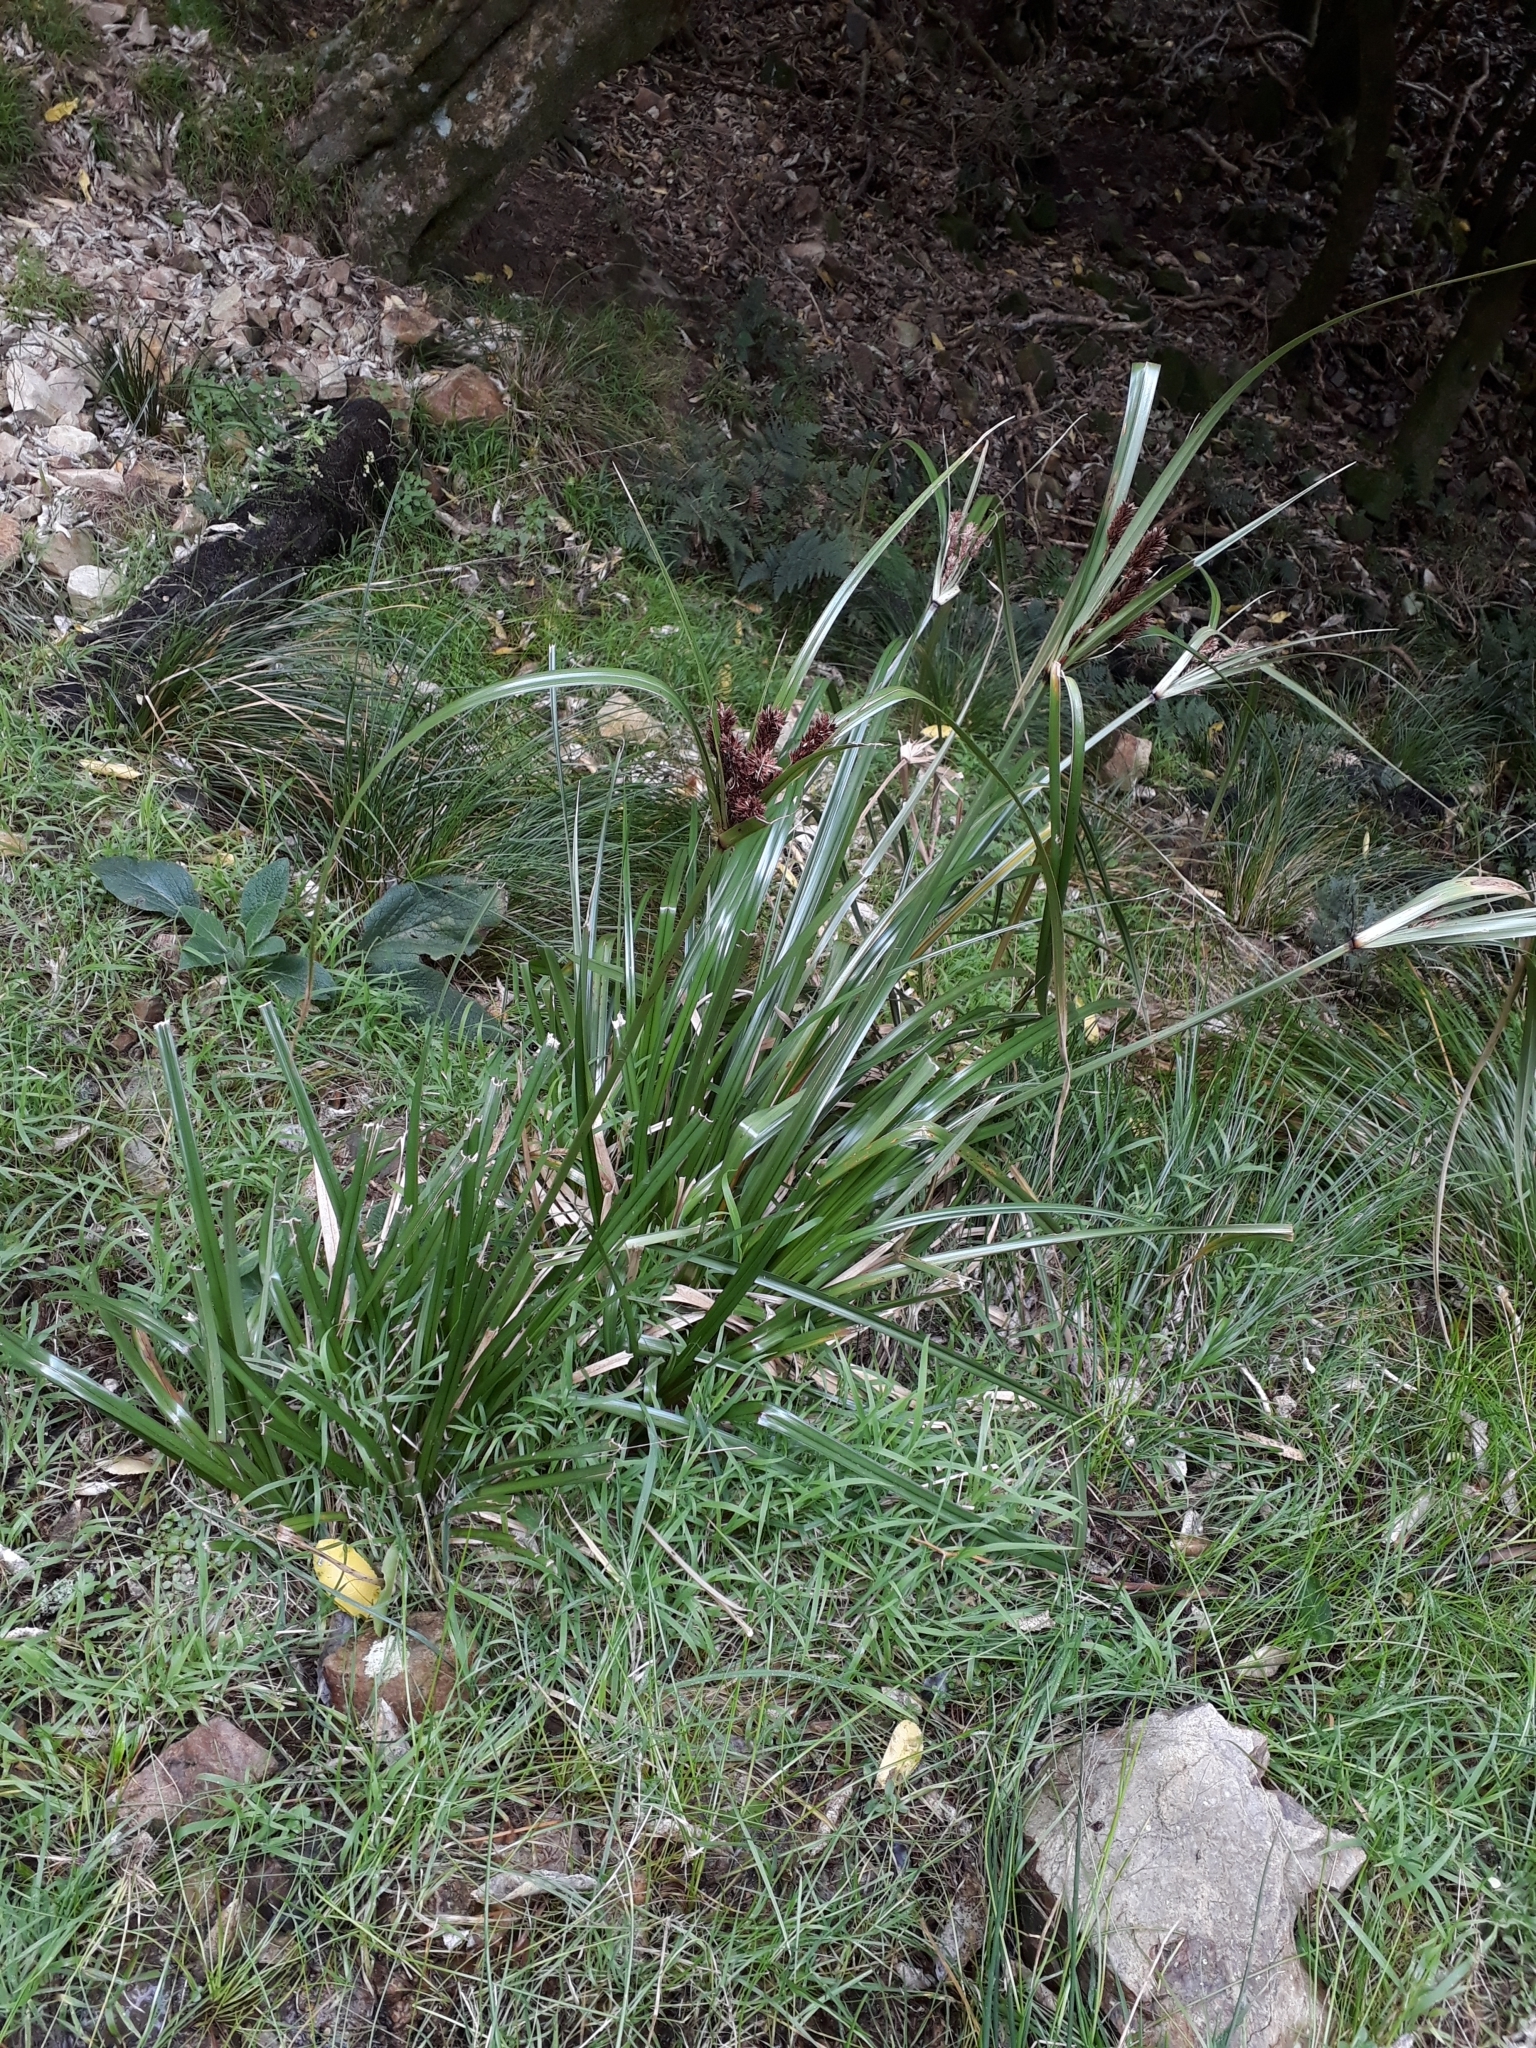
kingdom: Plantae
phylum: Tracheophyta
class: Liliopsida
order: Poales
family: Cyperaceae
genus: Cyperus
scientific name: Cyperus ustulatus
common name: Giant umbrella-sedge
